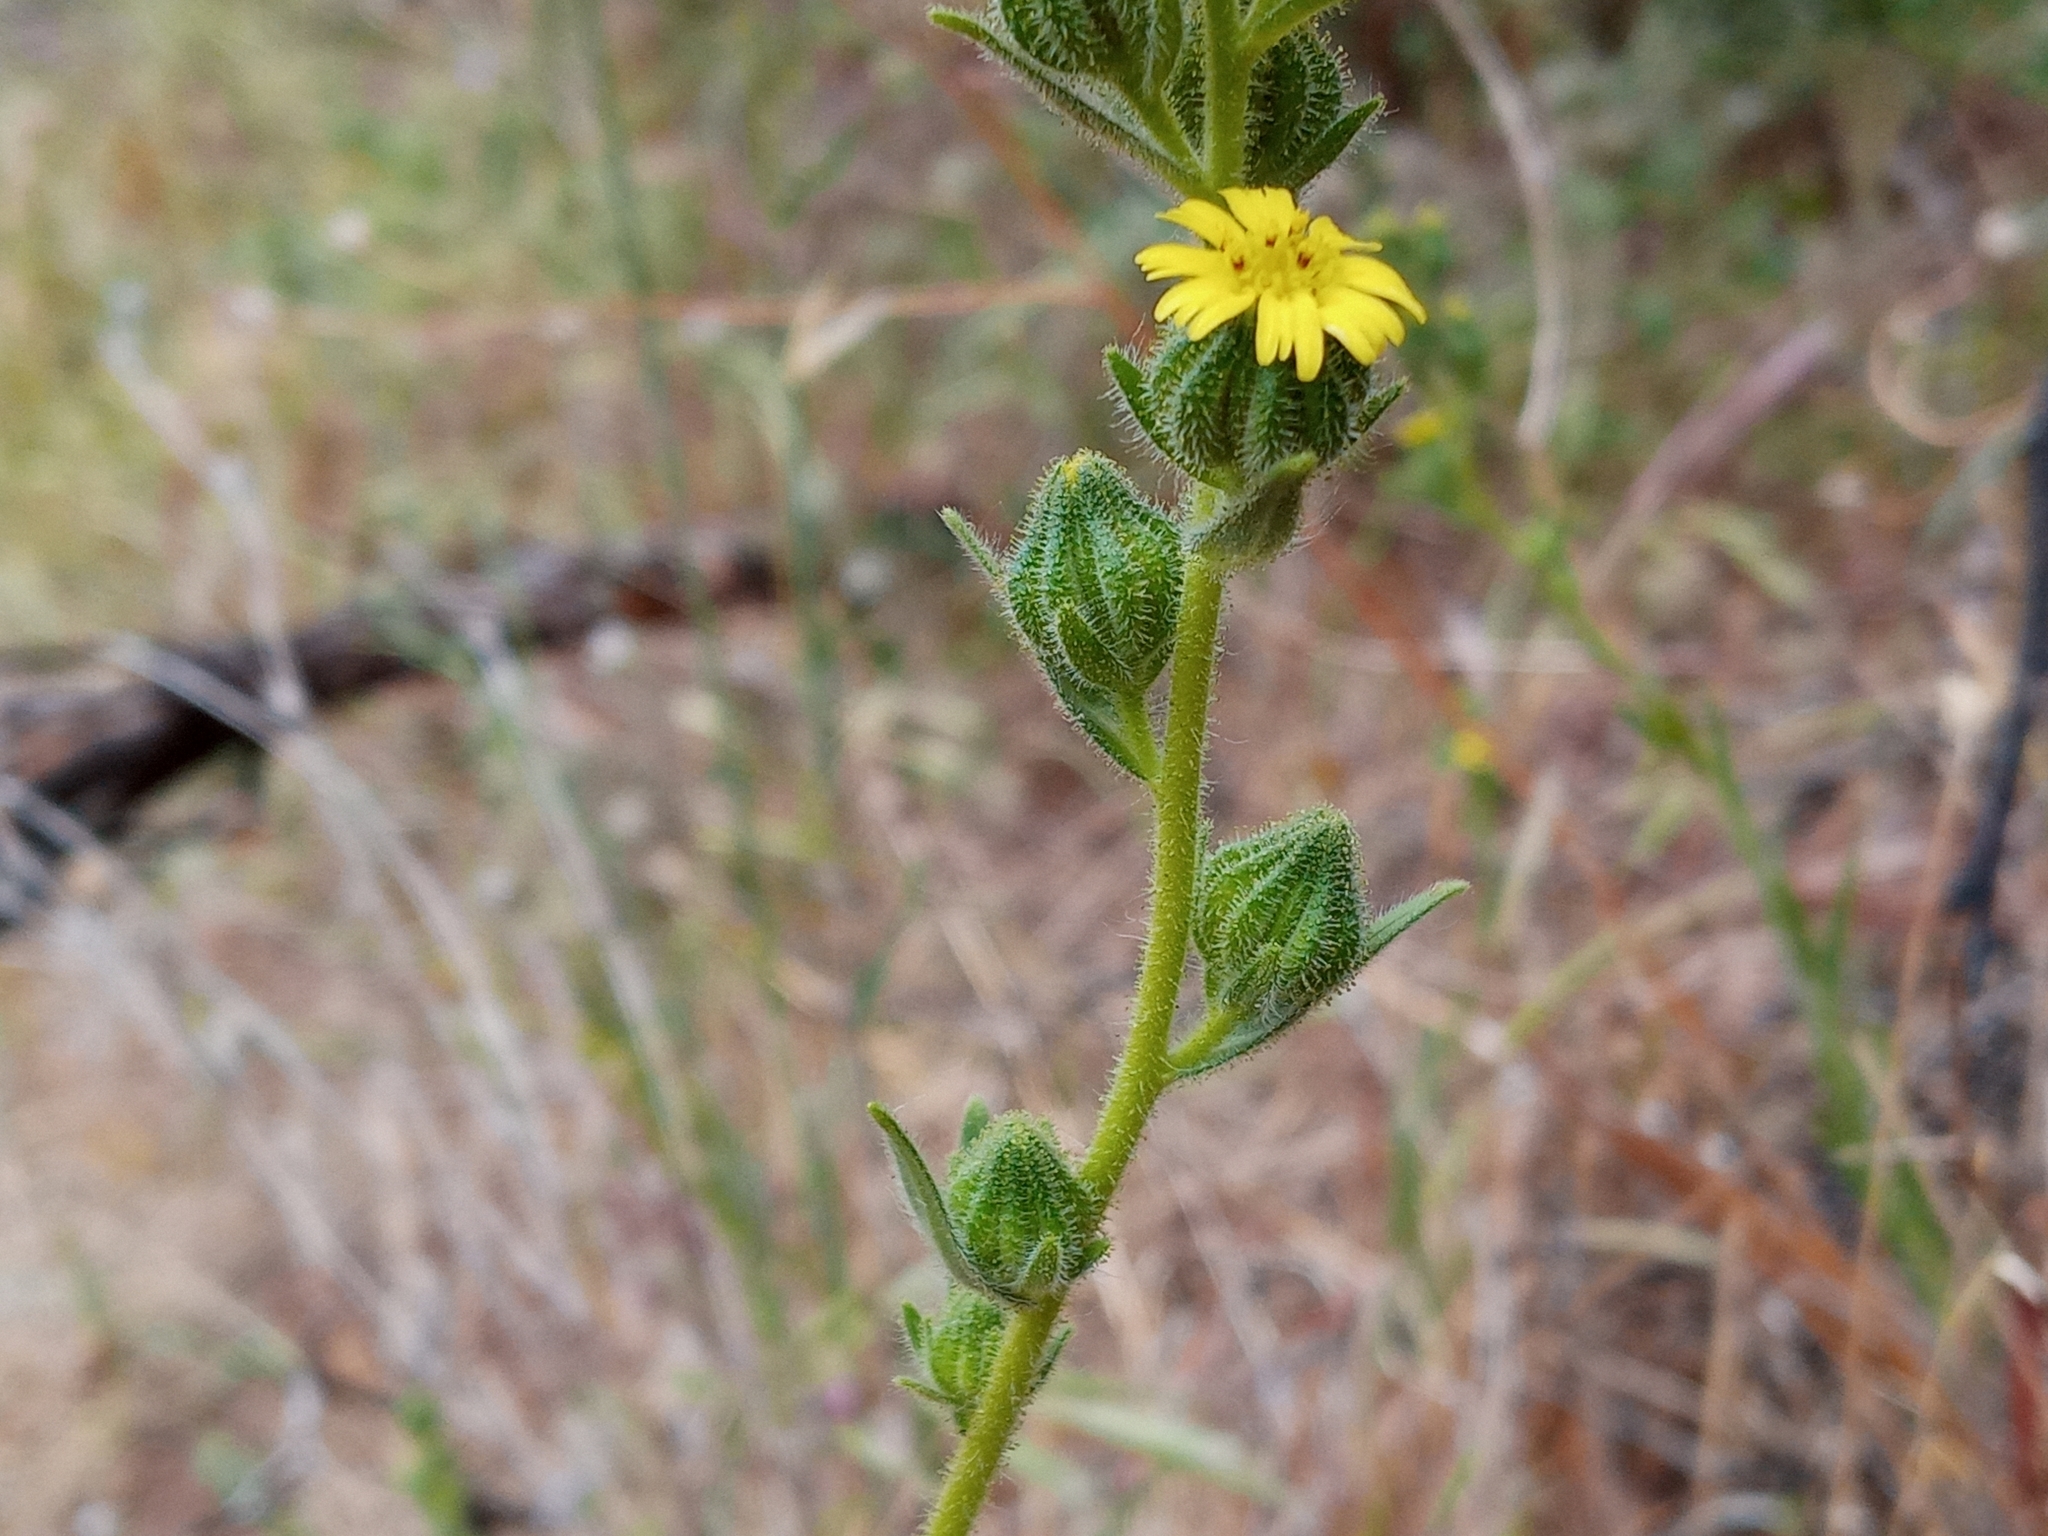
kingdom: Plantae
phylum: Tracheophyta
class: Magnoliopsida
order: Asterales
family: Asteraceae
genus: Madia
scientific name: Madia gracilis
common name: Grassy tarweed
